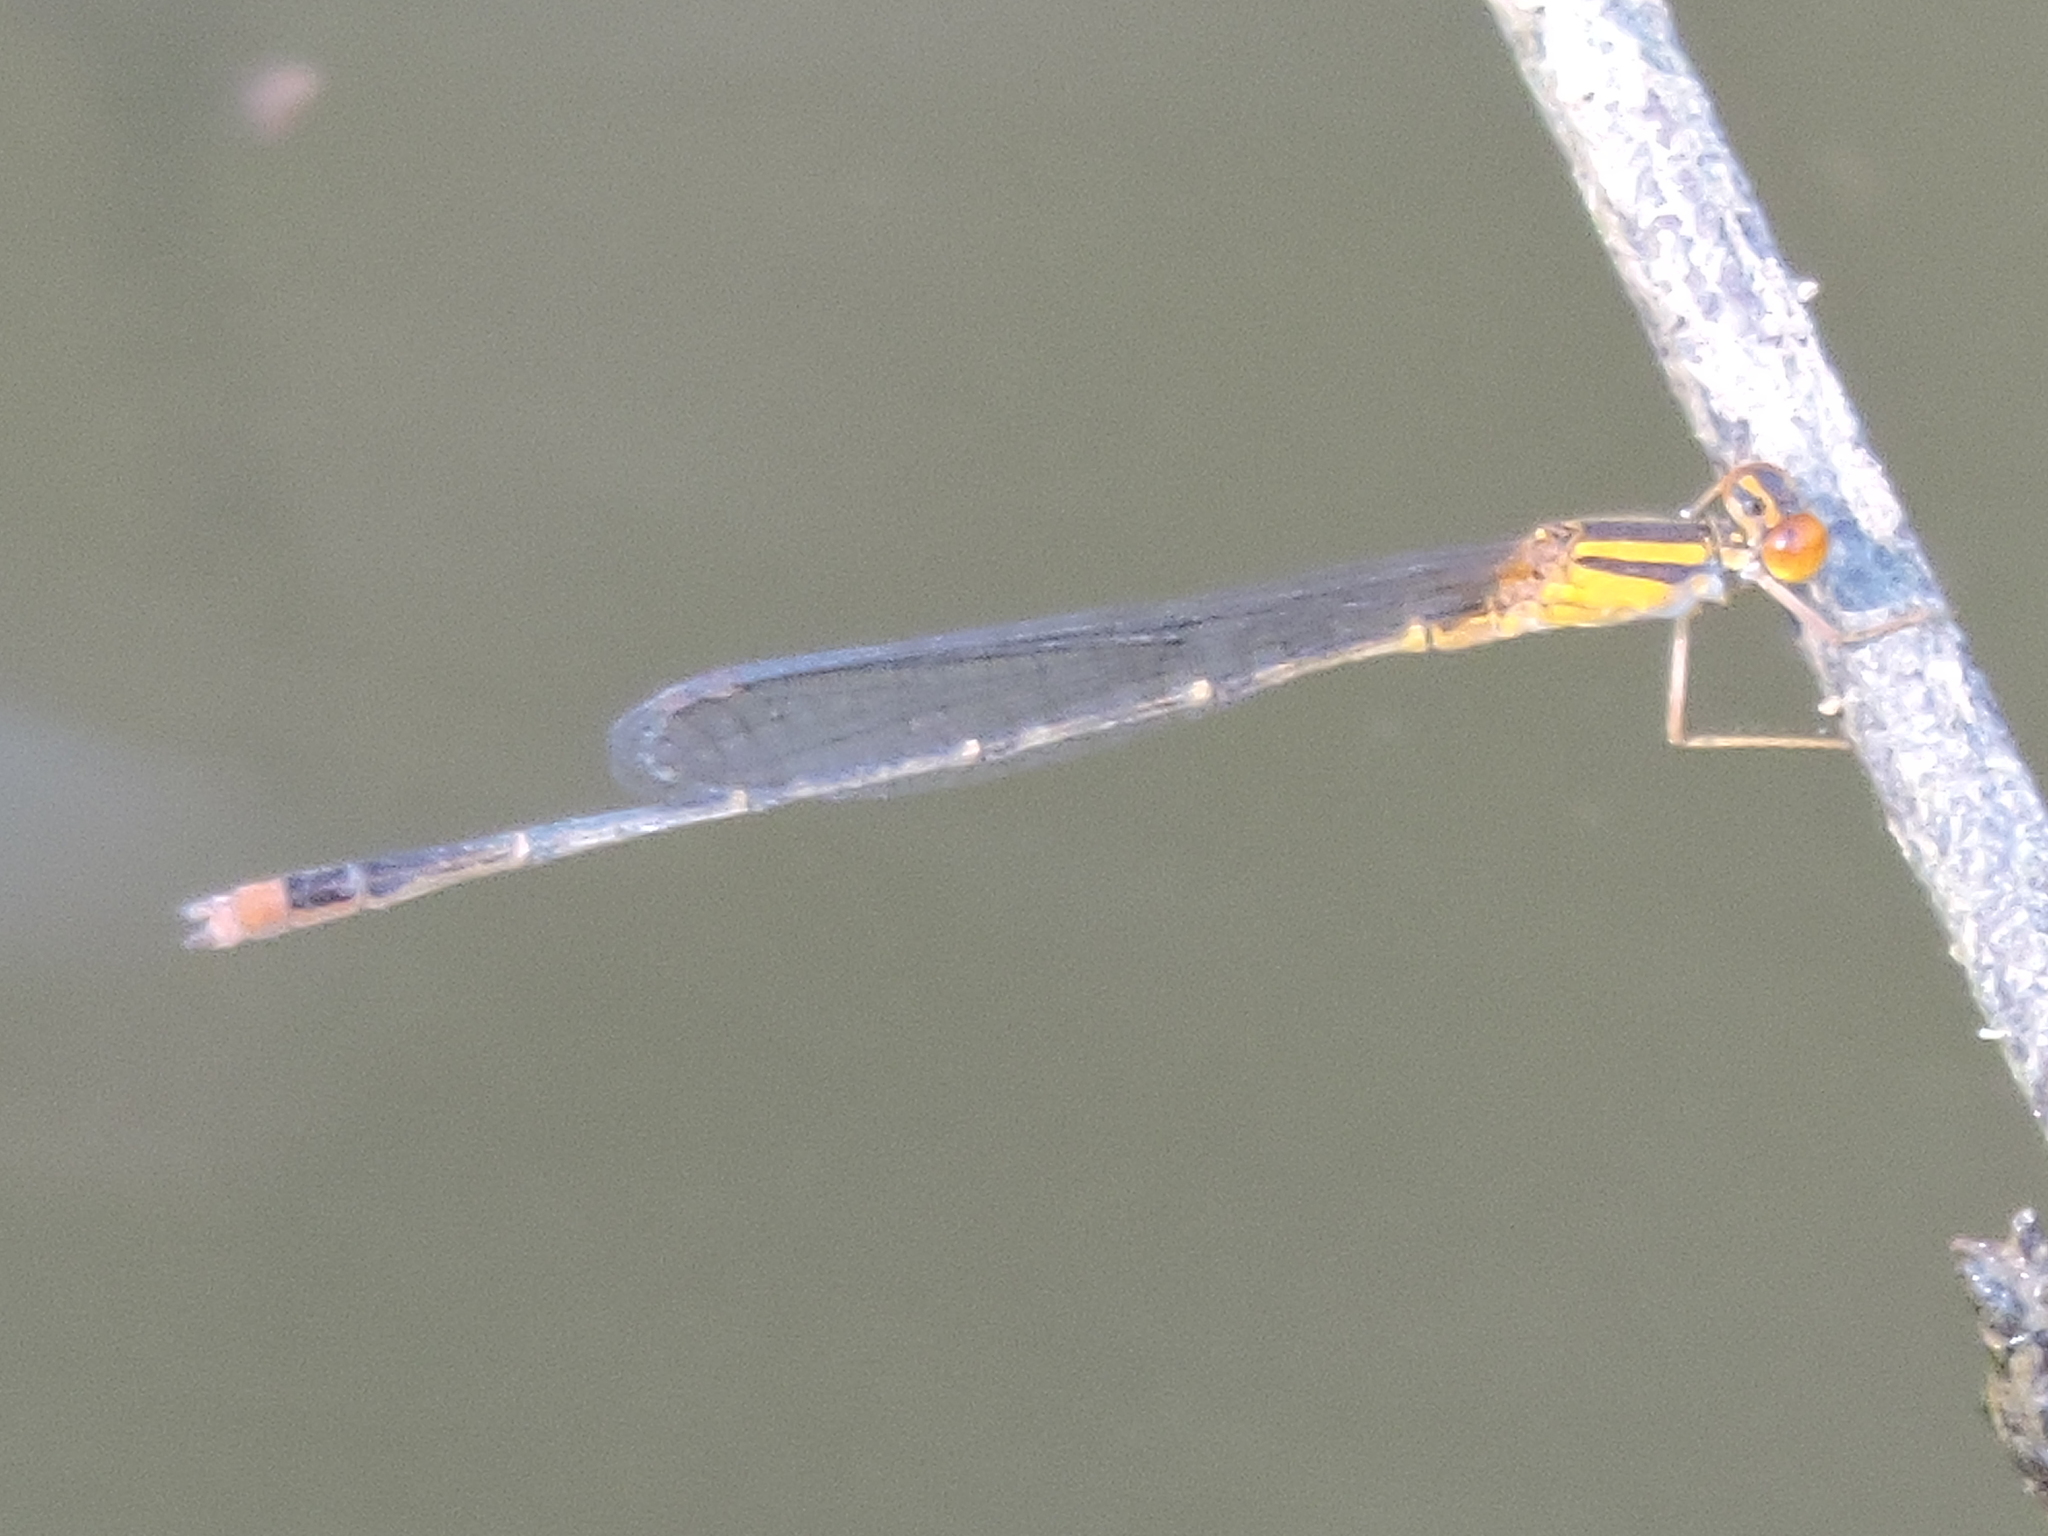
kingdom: Animalia
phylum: Arthropoda
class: Insecta
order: Odonata
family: Coenagrionidae
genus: Enallagma
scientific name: Enallagma signatum
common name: Orange bluet
